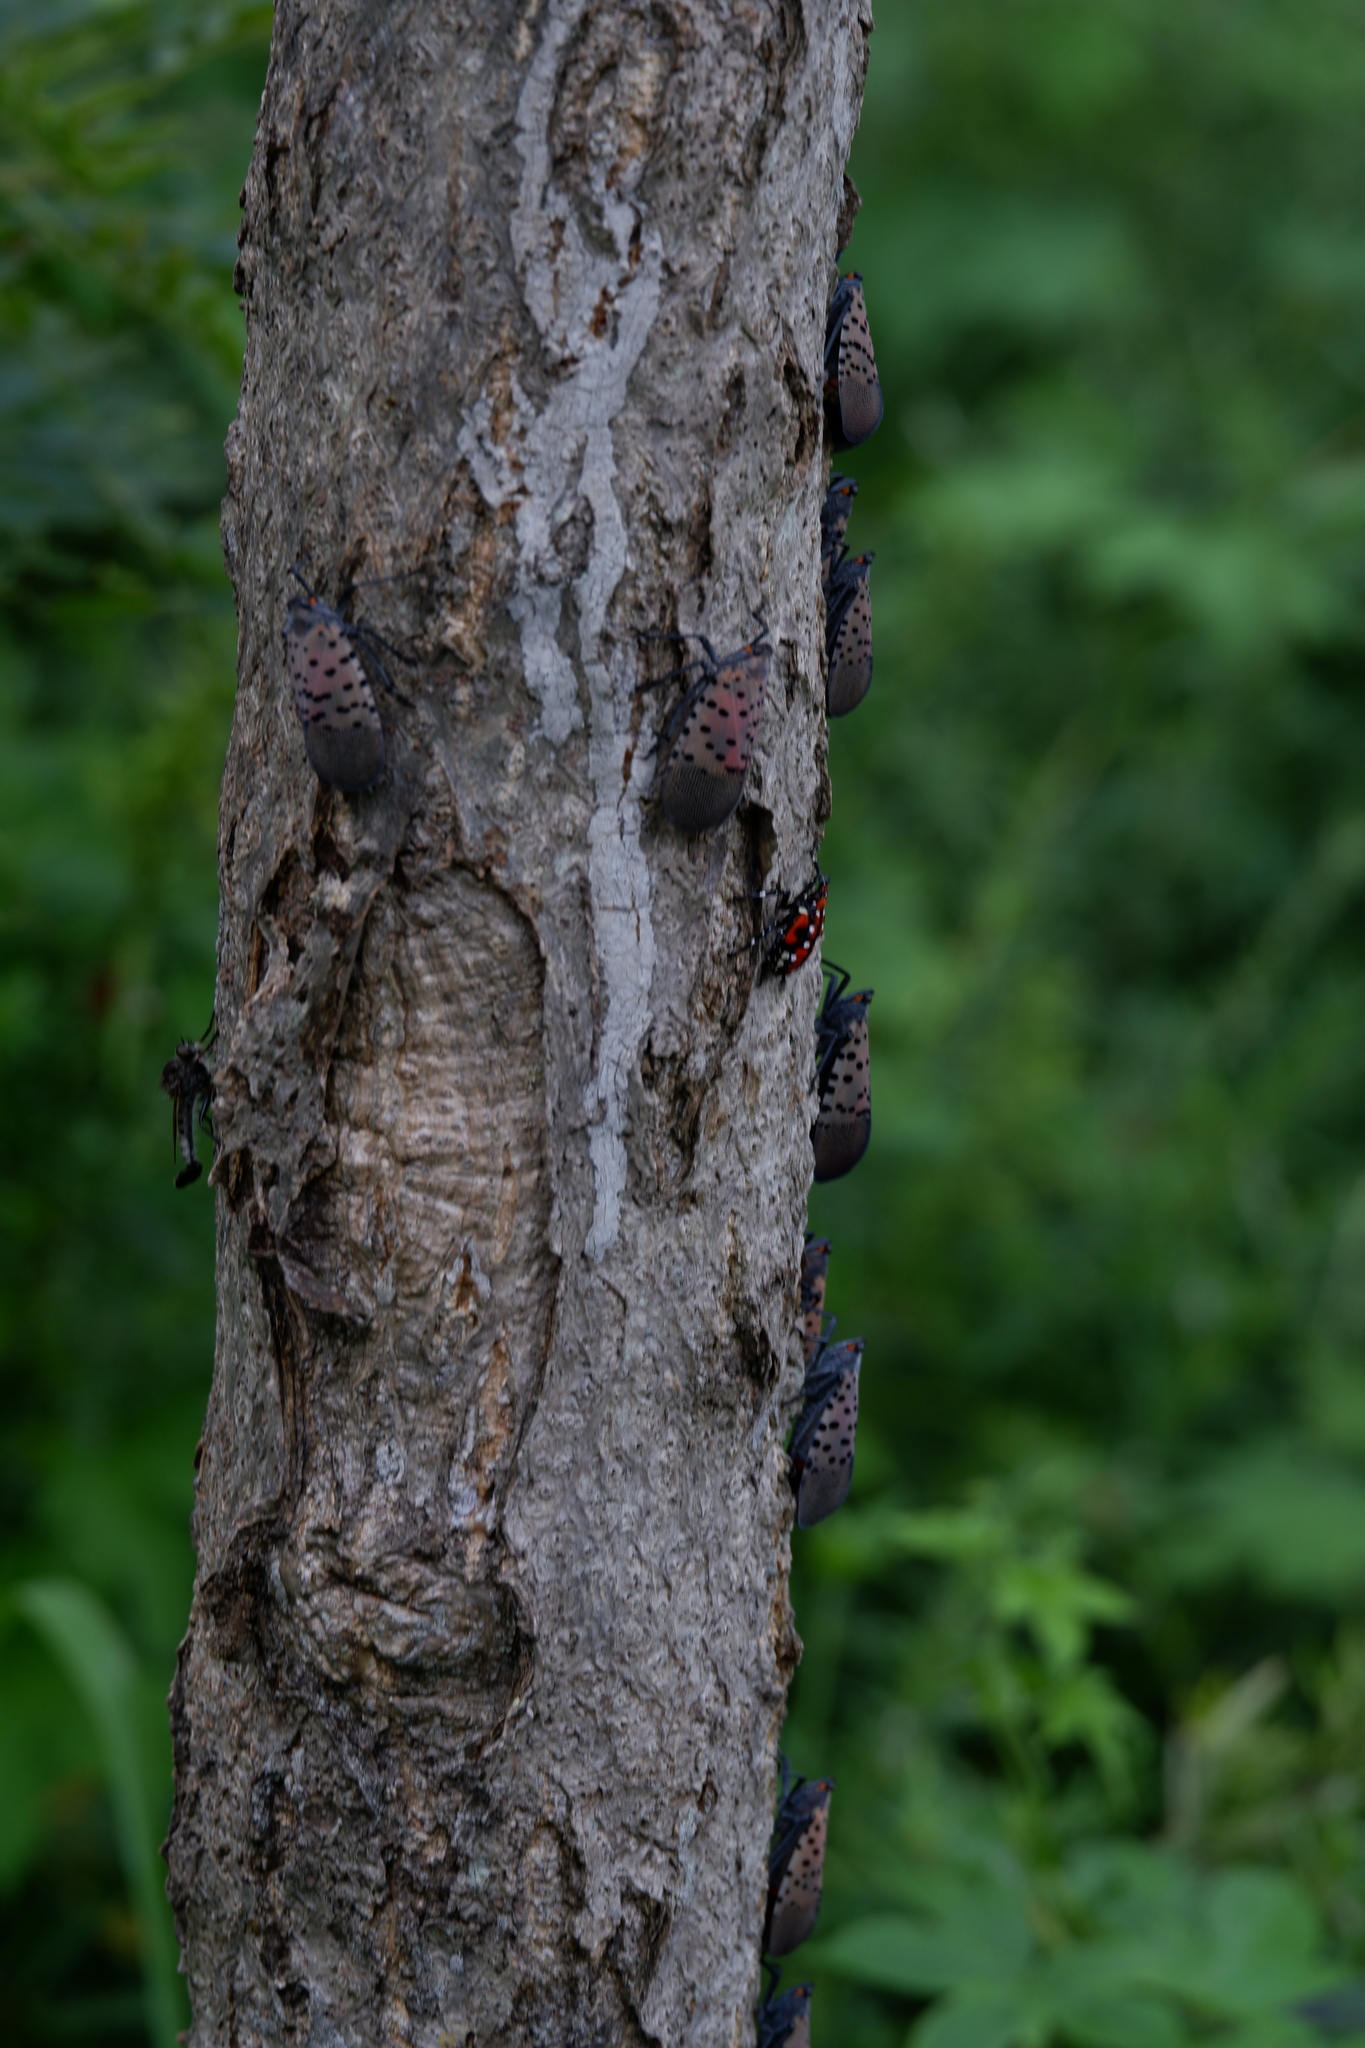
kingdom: Animalia
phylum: Arthropoda
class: Insecta
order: Hemiptera
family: Fulgoridae
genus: Lycorma
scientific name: Lycorma delicatula
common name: Spotted lanternfly
